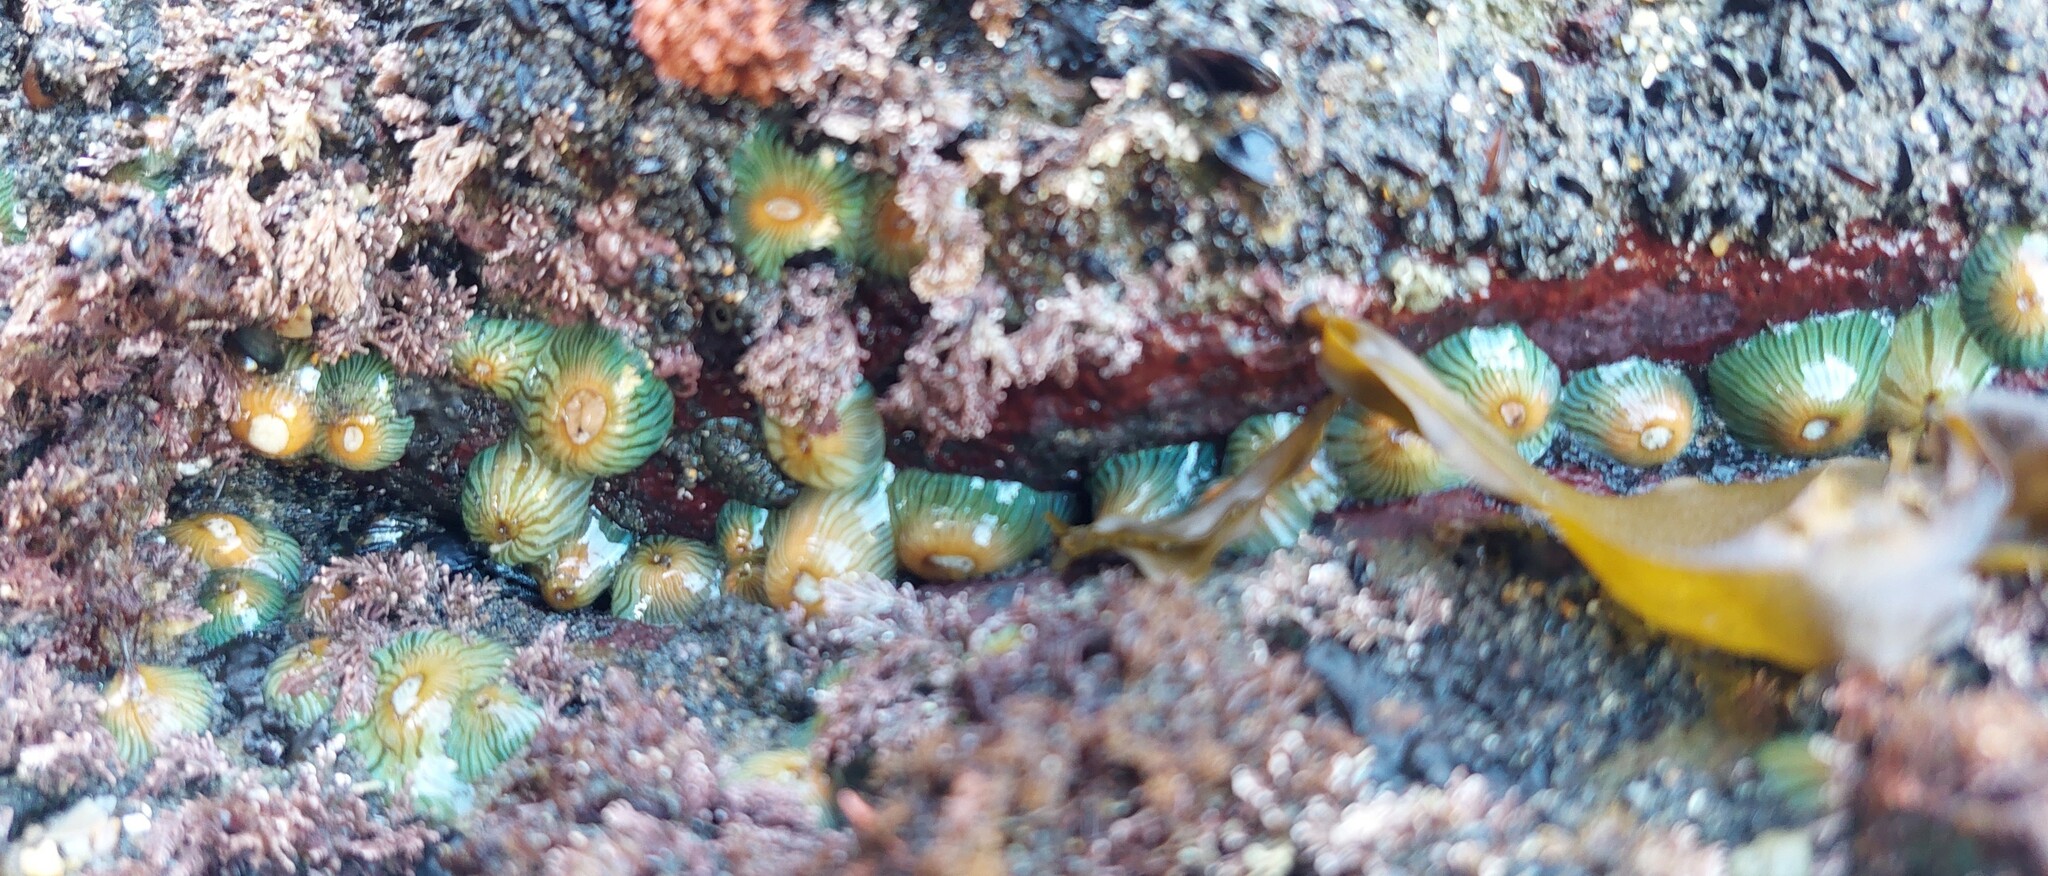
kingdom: Animalia
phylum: Cnidaria
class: Anthozoa
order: Actiniaria
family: Sagartiidae
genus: Anthothoe
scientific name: Anthothoe albocincta
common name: Orange striped anemone
